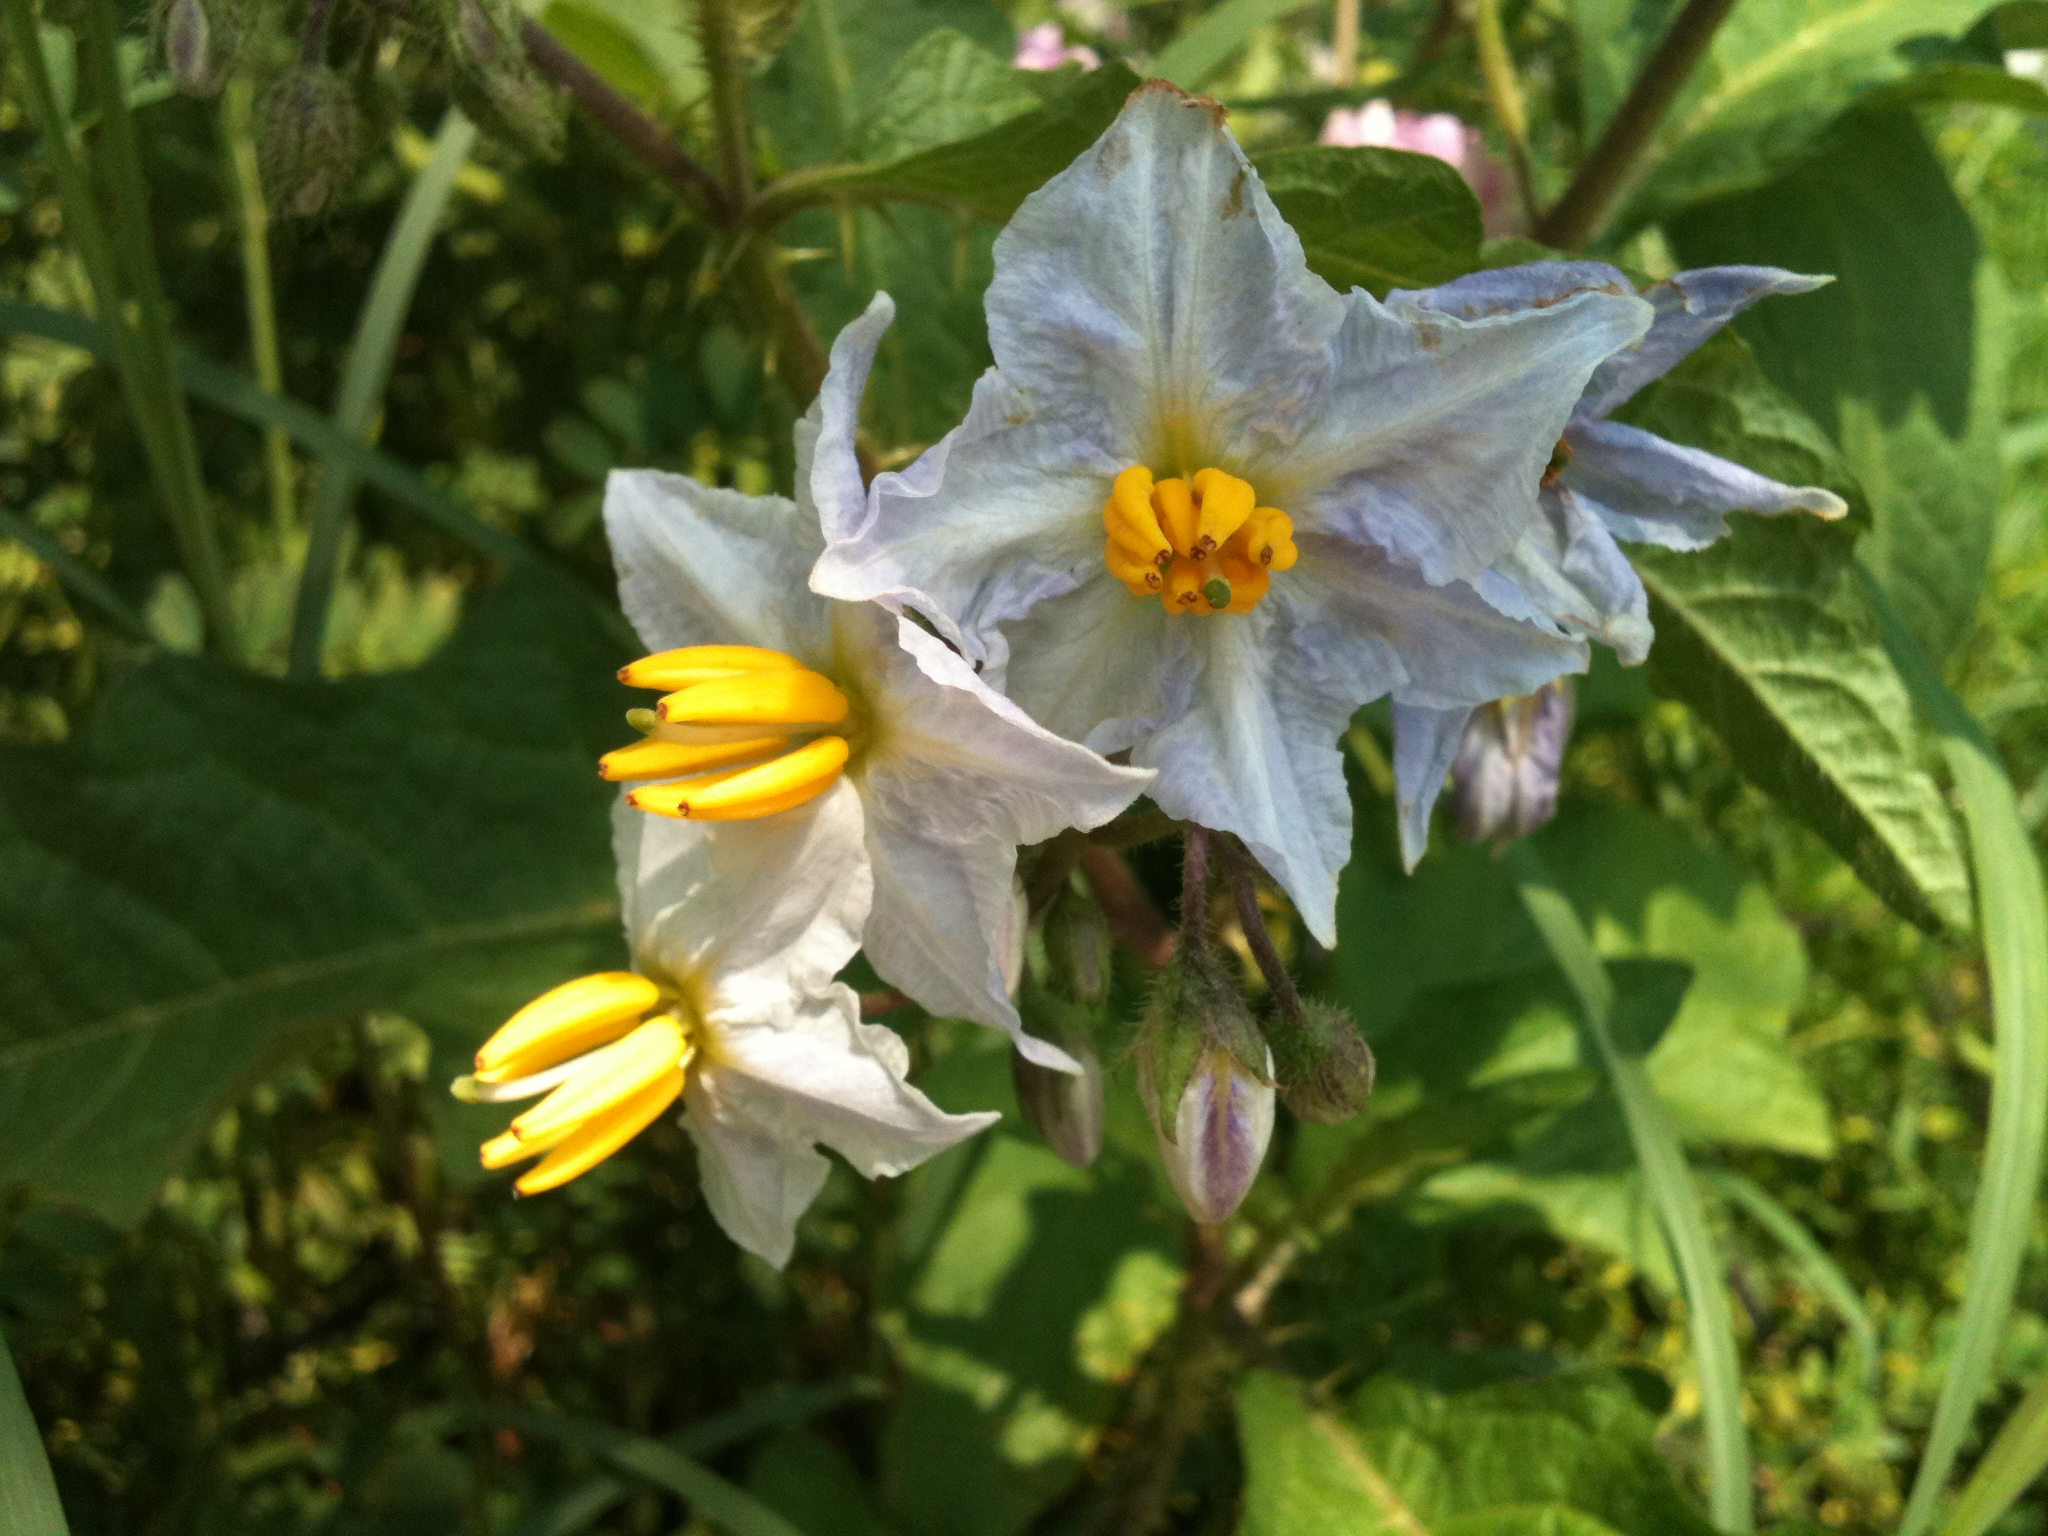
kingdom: Plantae
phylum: Tracheophyta
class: Magnoliopsida
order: Solanales
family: Solanaceae
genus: Solanum
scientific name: Solanum carolinense
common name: Horse-nettle
